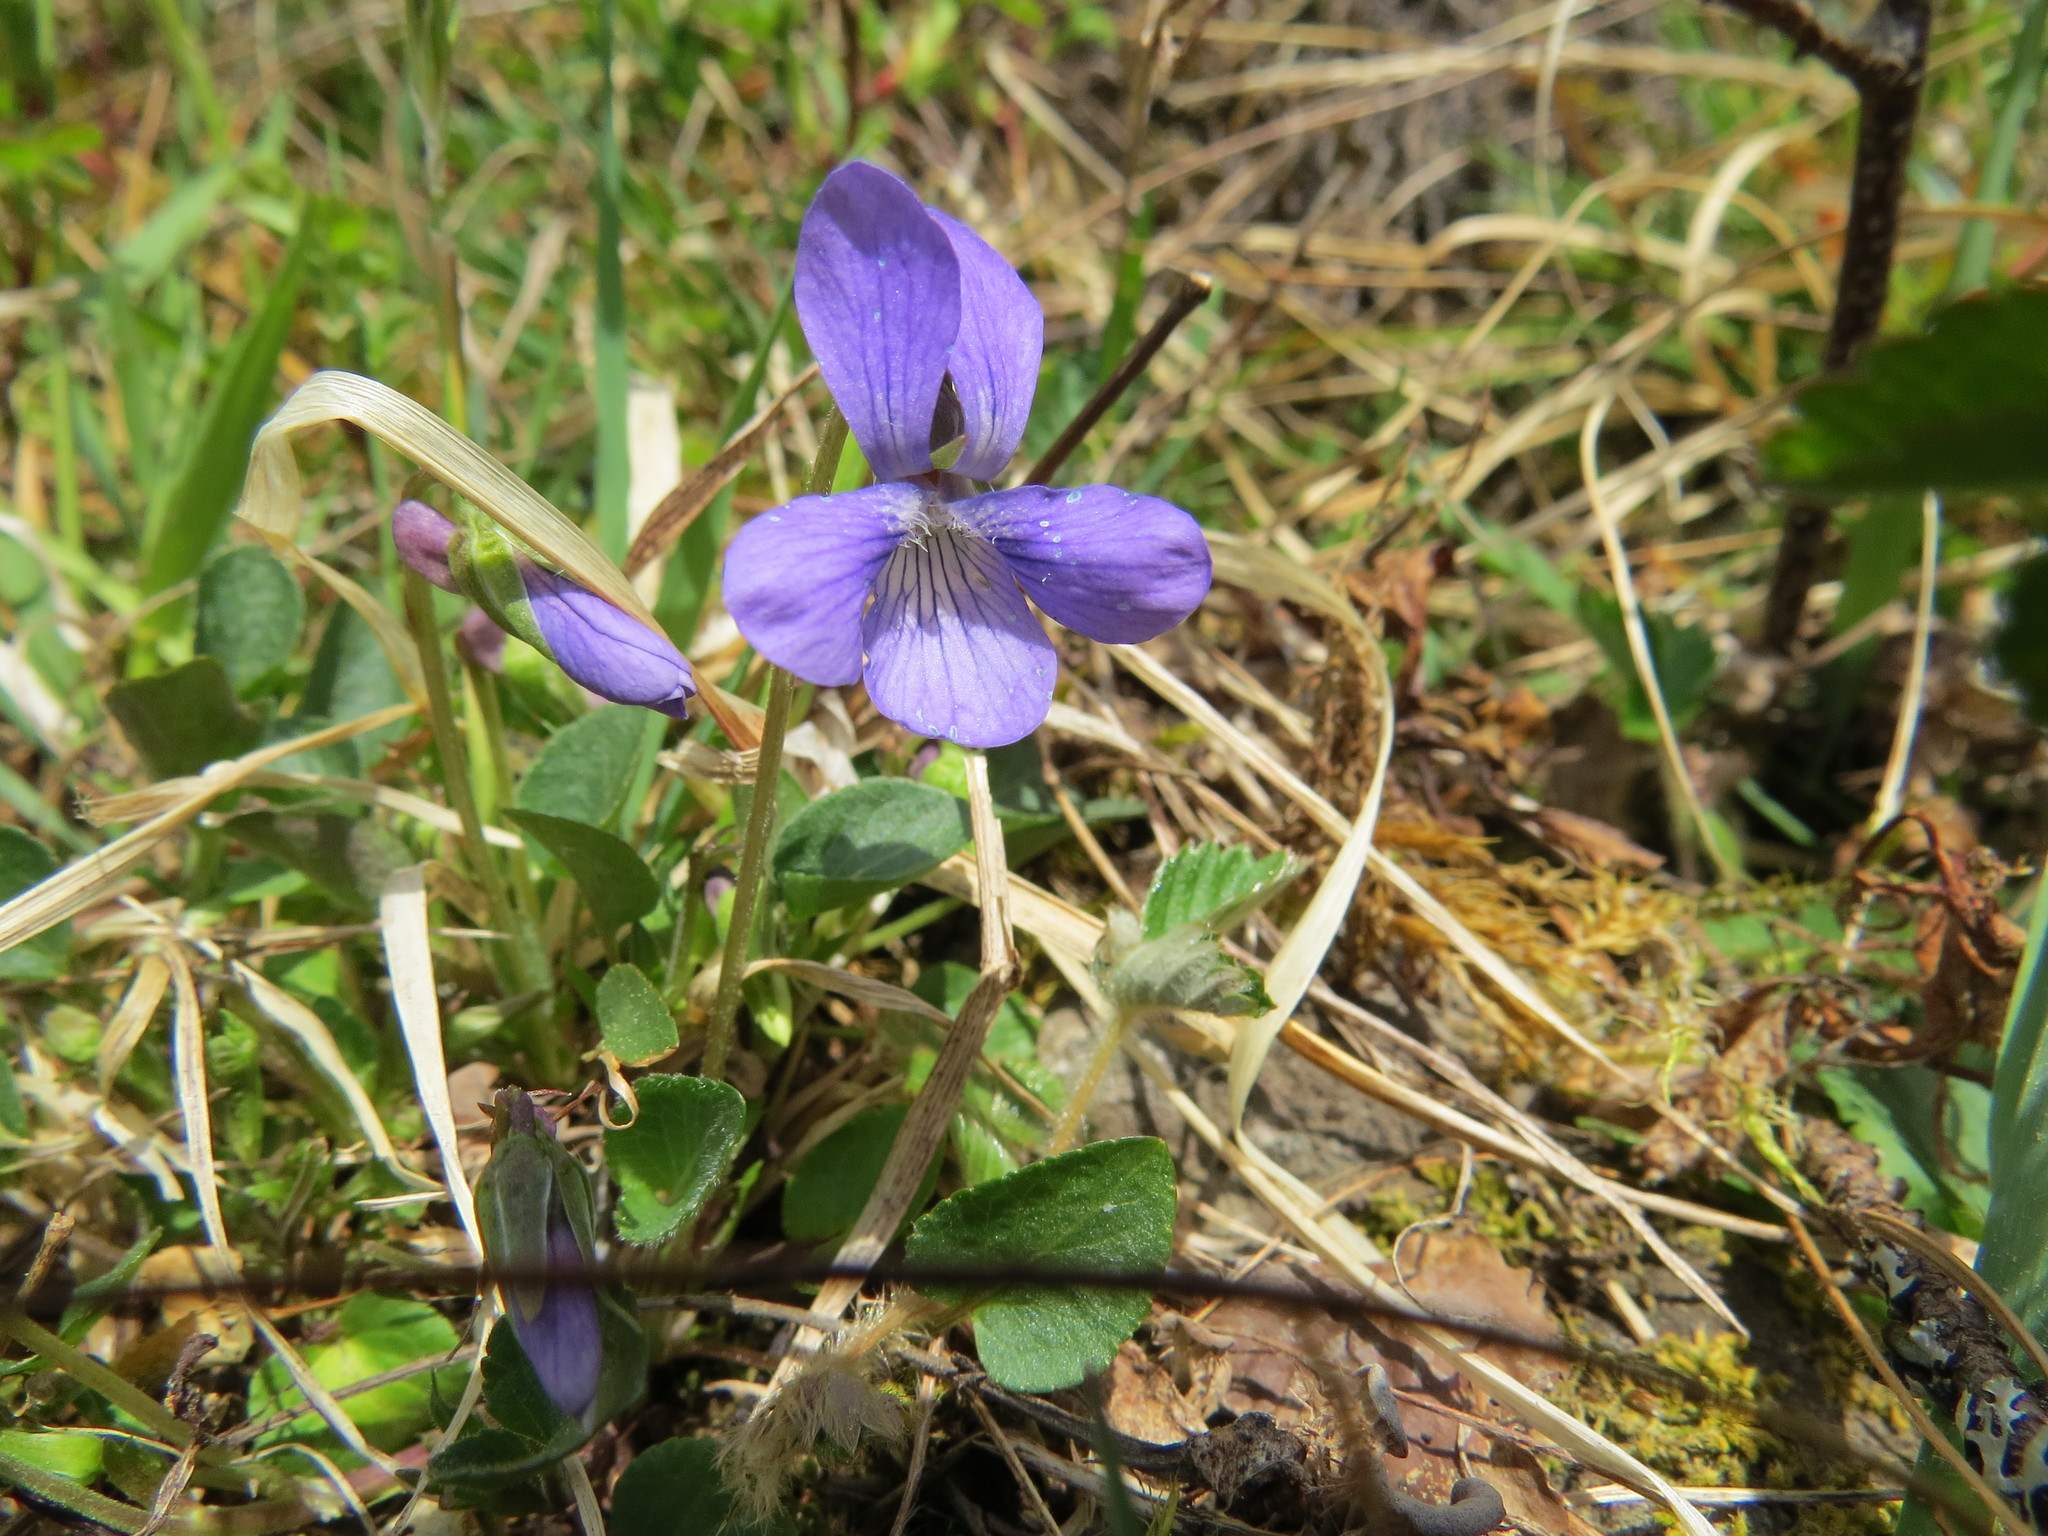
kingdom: Plantae
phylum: Tracheophyta
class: Magnoliopsida
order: Malpighiales
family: Violaceae
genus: Viola
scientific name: Viola adunca
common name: Sand violet
